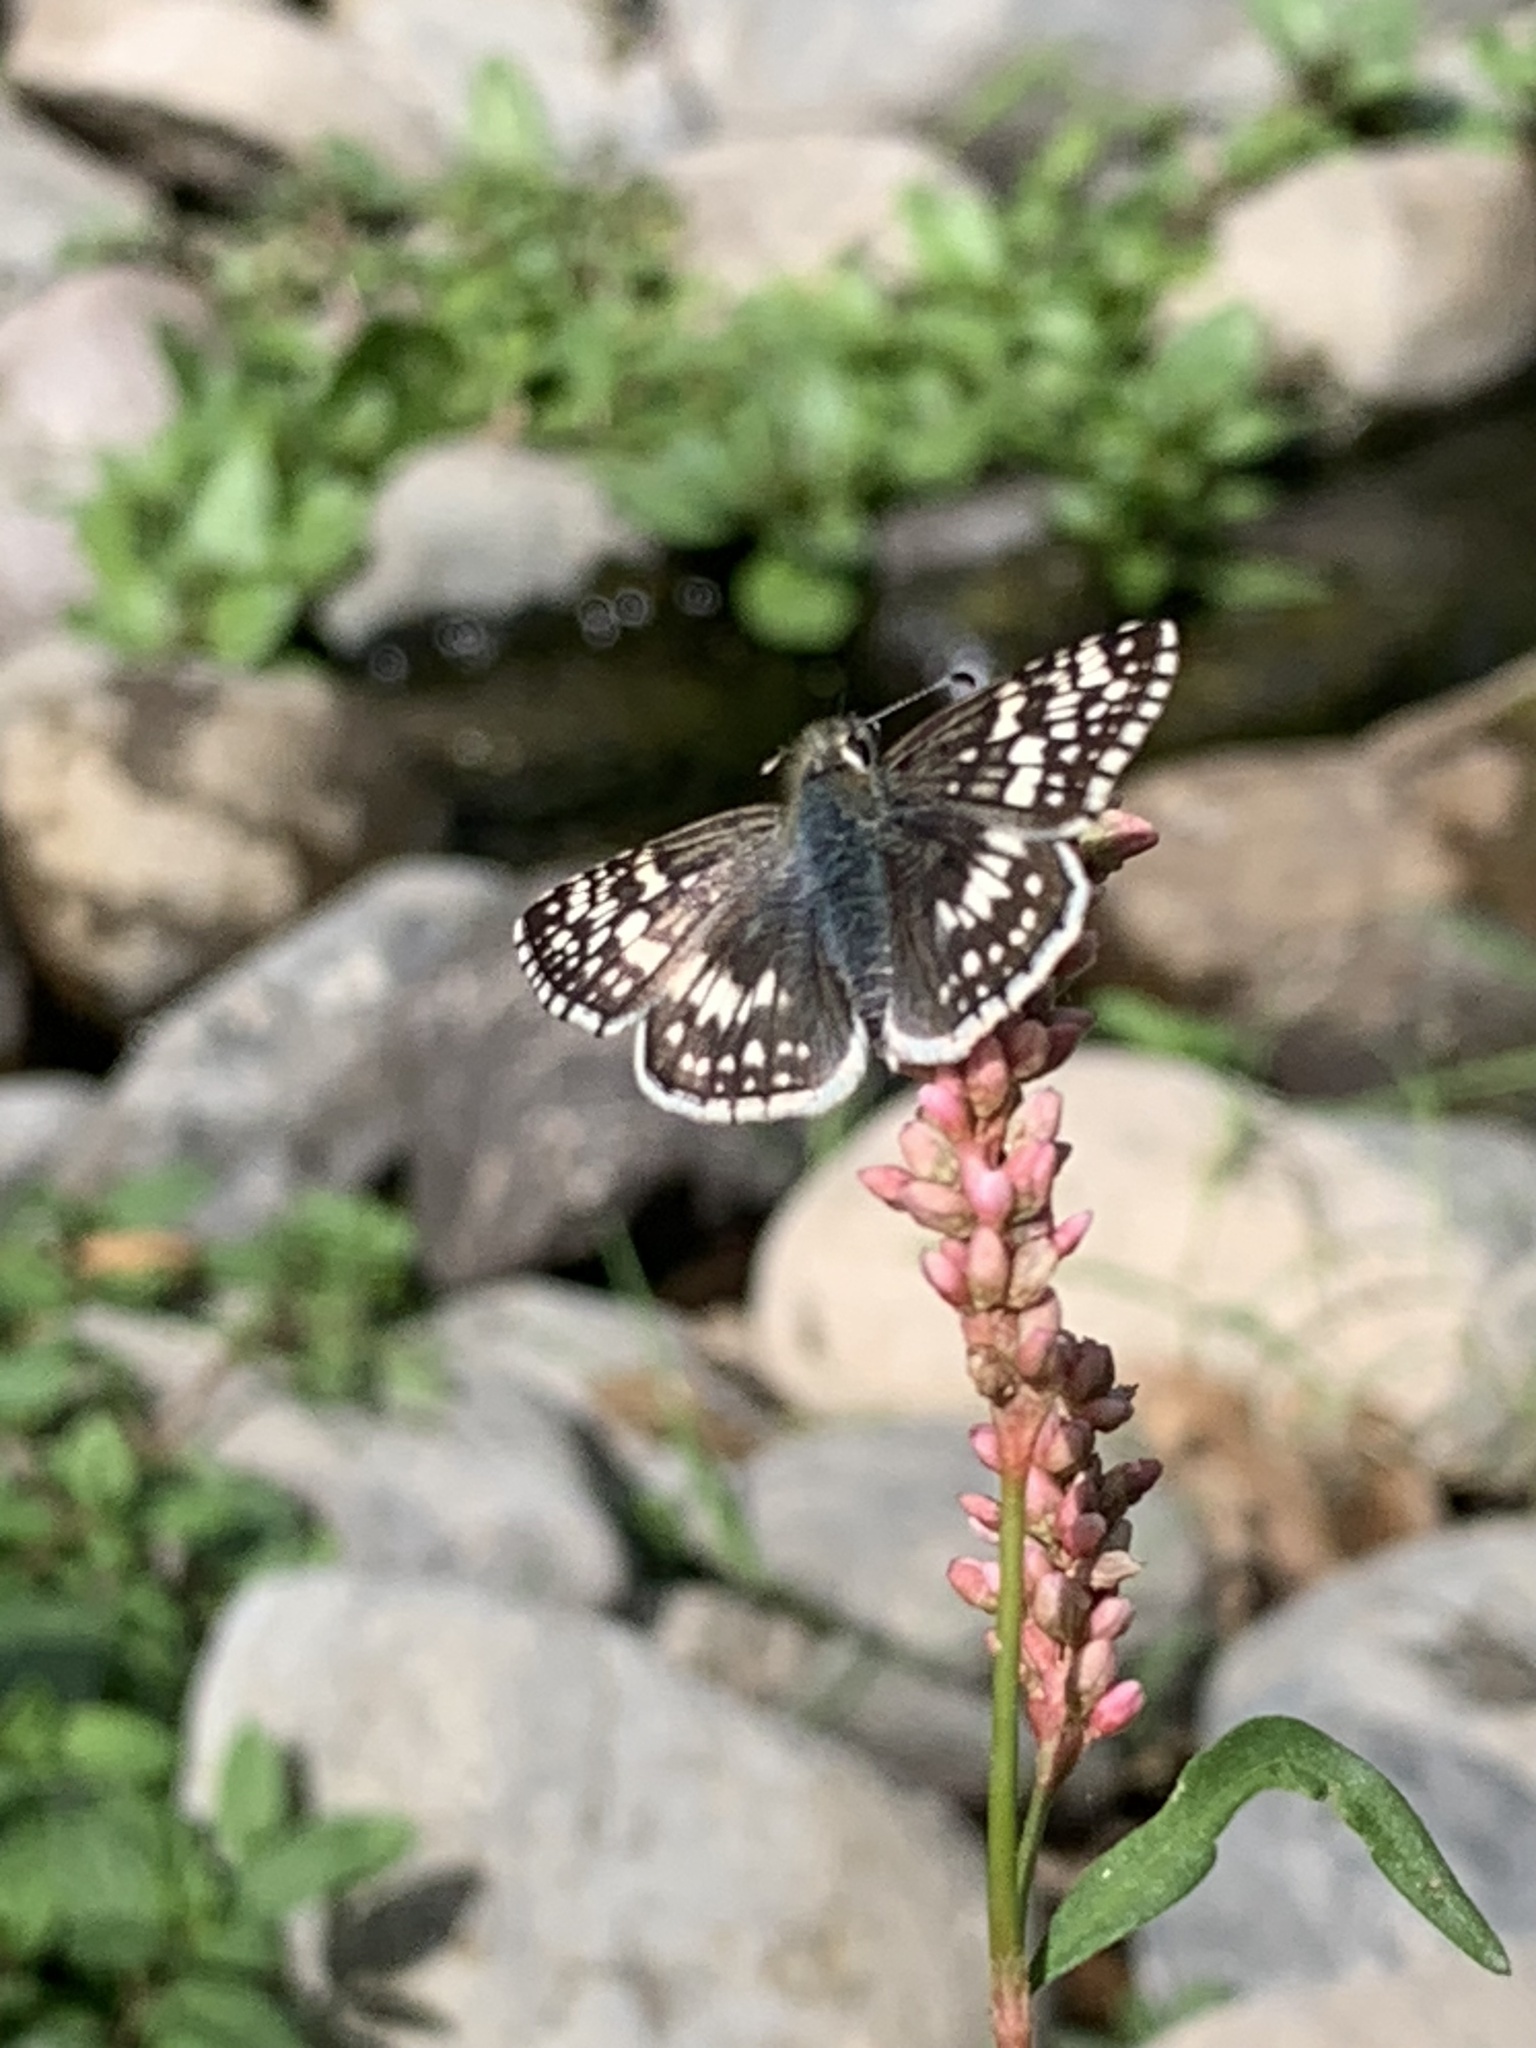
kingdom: Animalia
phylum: Arthropoda
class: Insecta
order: Lepidoptera
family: Hesperiidae
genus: Burnsius
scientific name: Burnsius communis
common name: Common checkered-skipper
